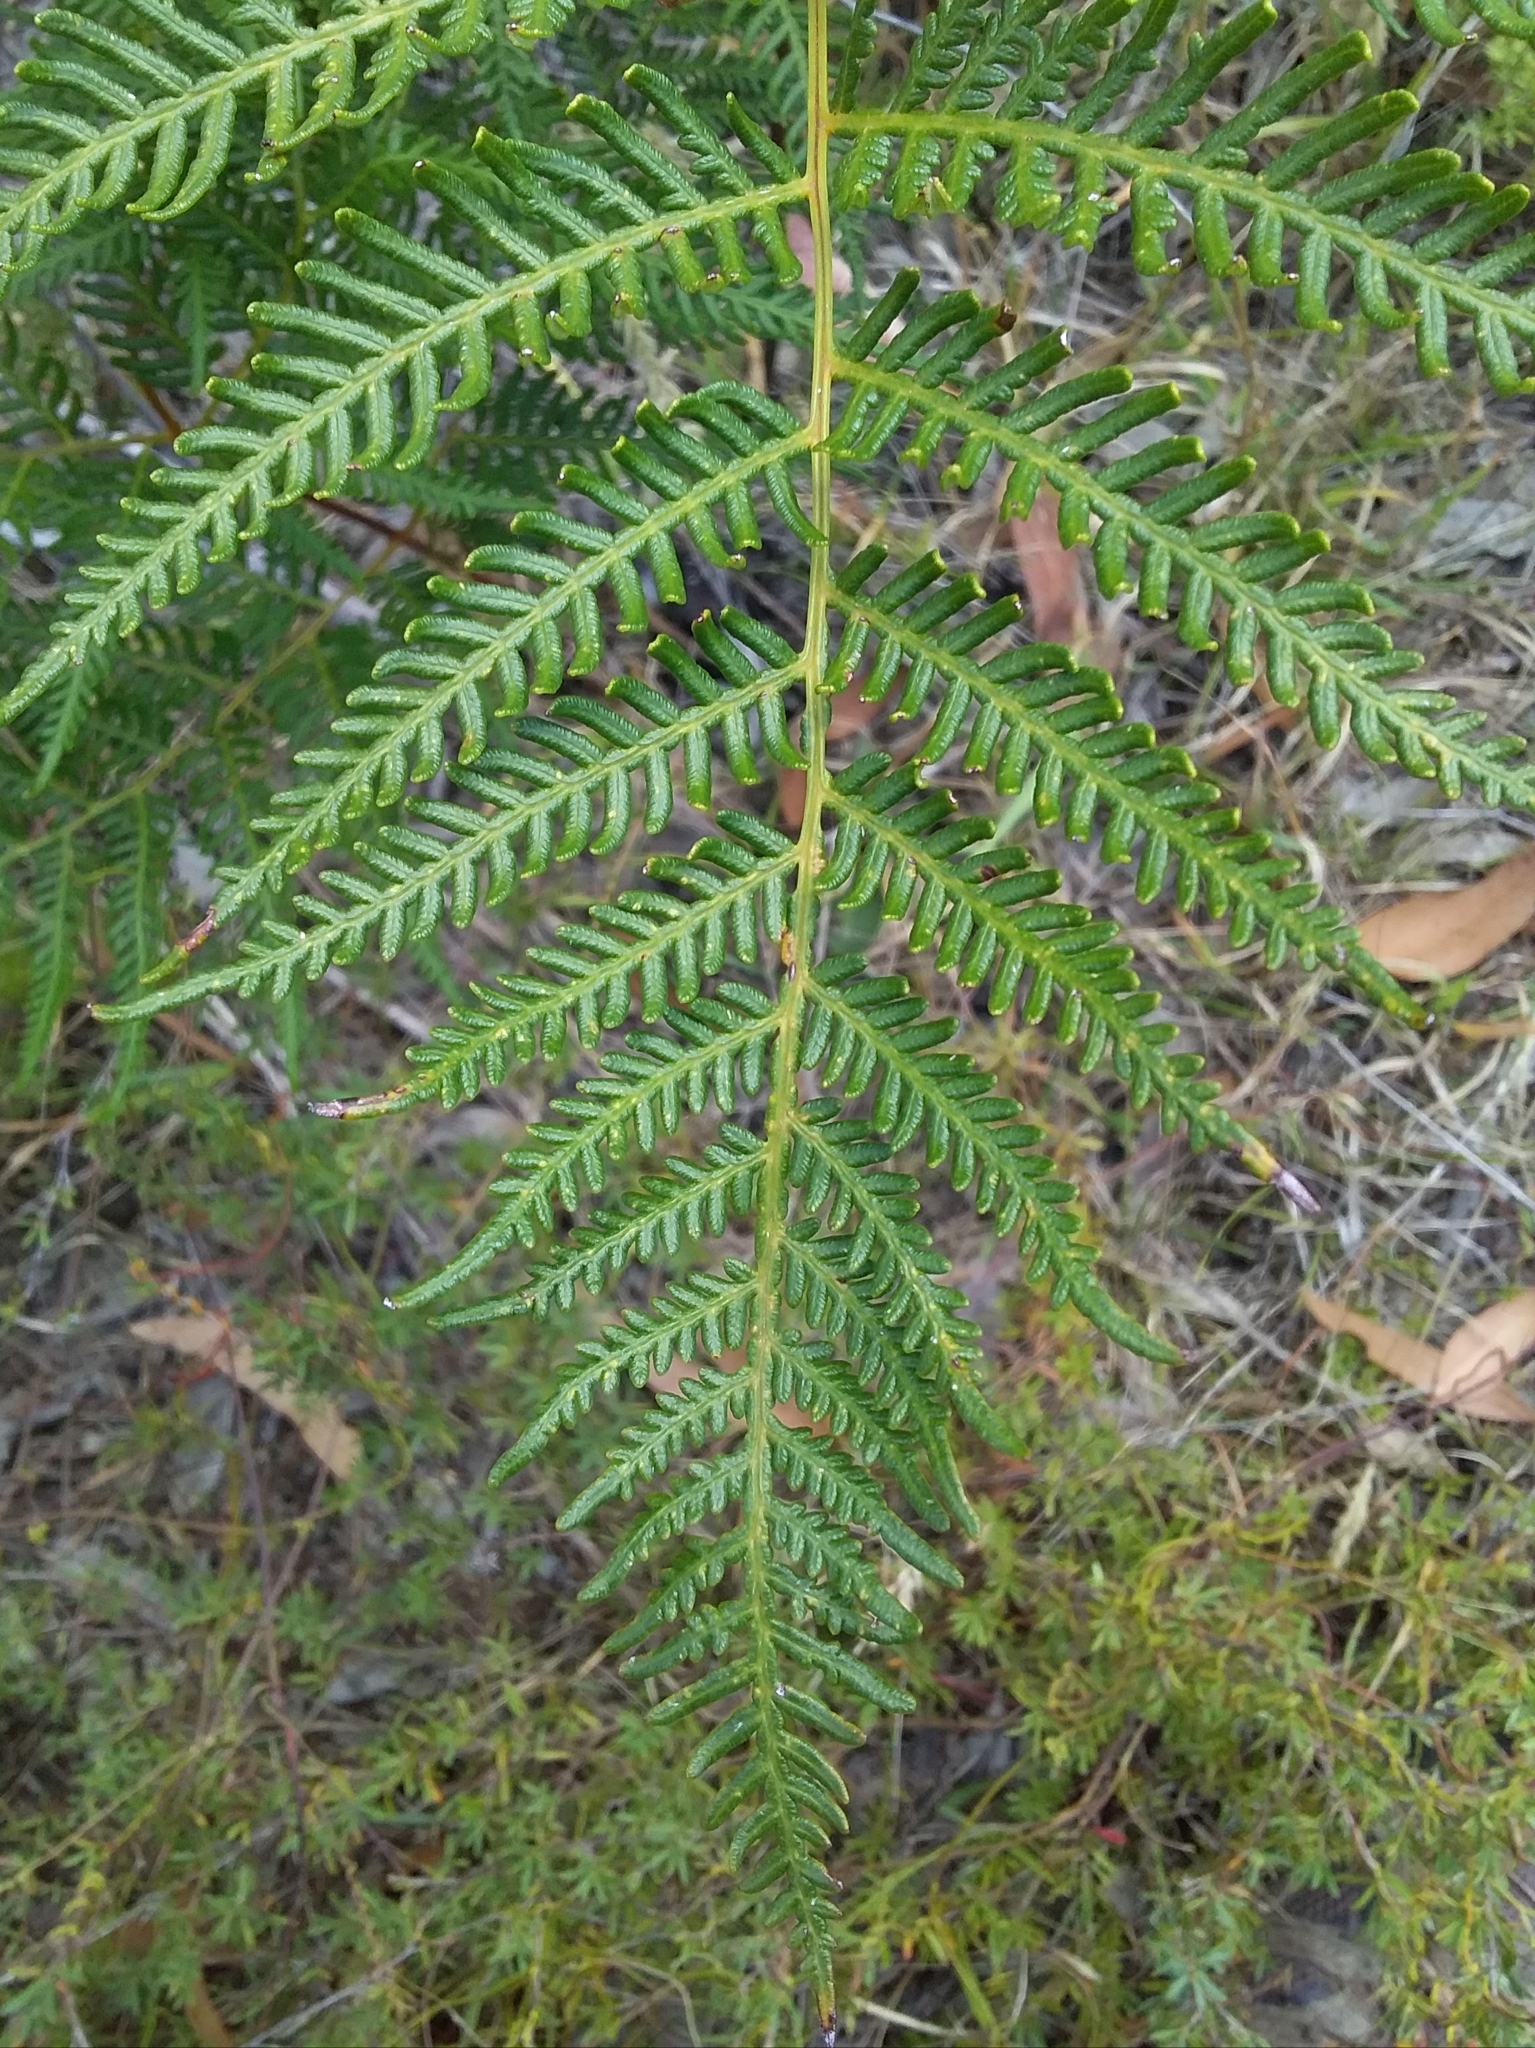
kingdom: Plantae
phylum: Tracheophyta
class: Polypodiopsida
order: Polypodiales
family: Dennstaedtiaceae
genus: Pteridium
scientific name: Pteridium esculentum
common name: Bracken fern
